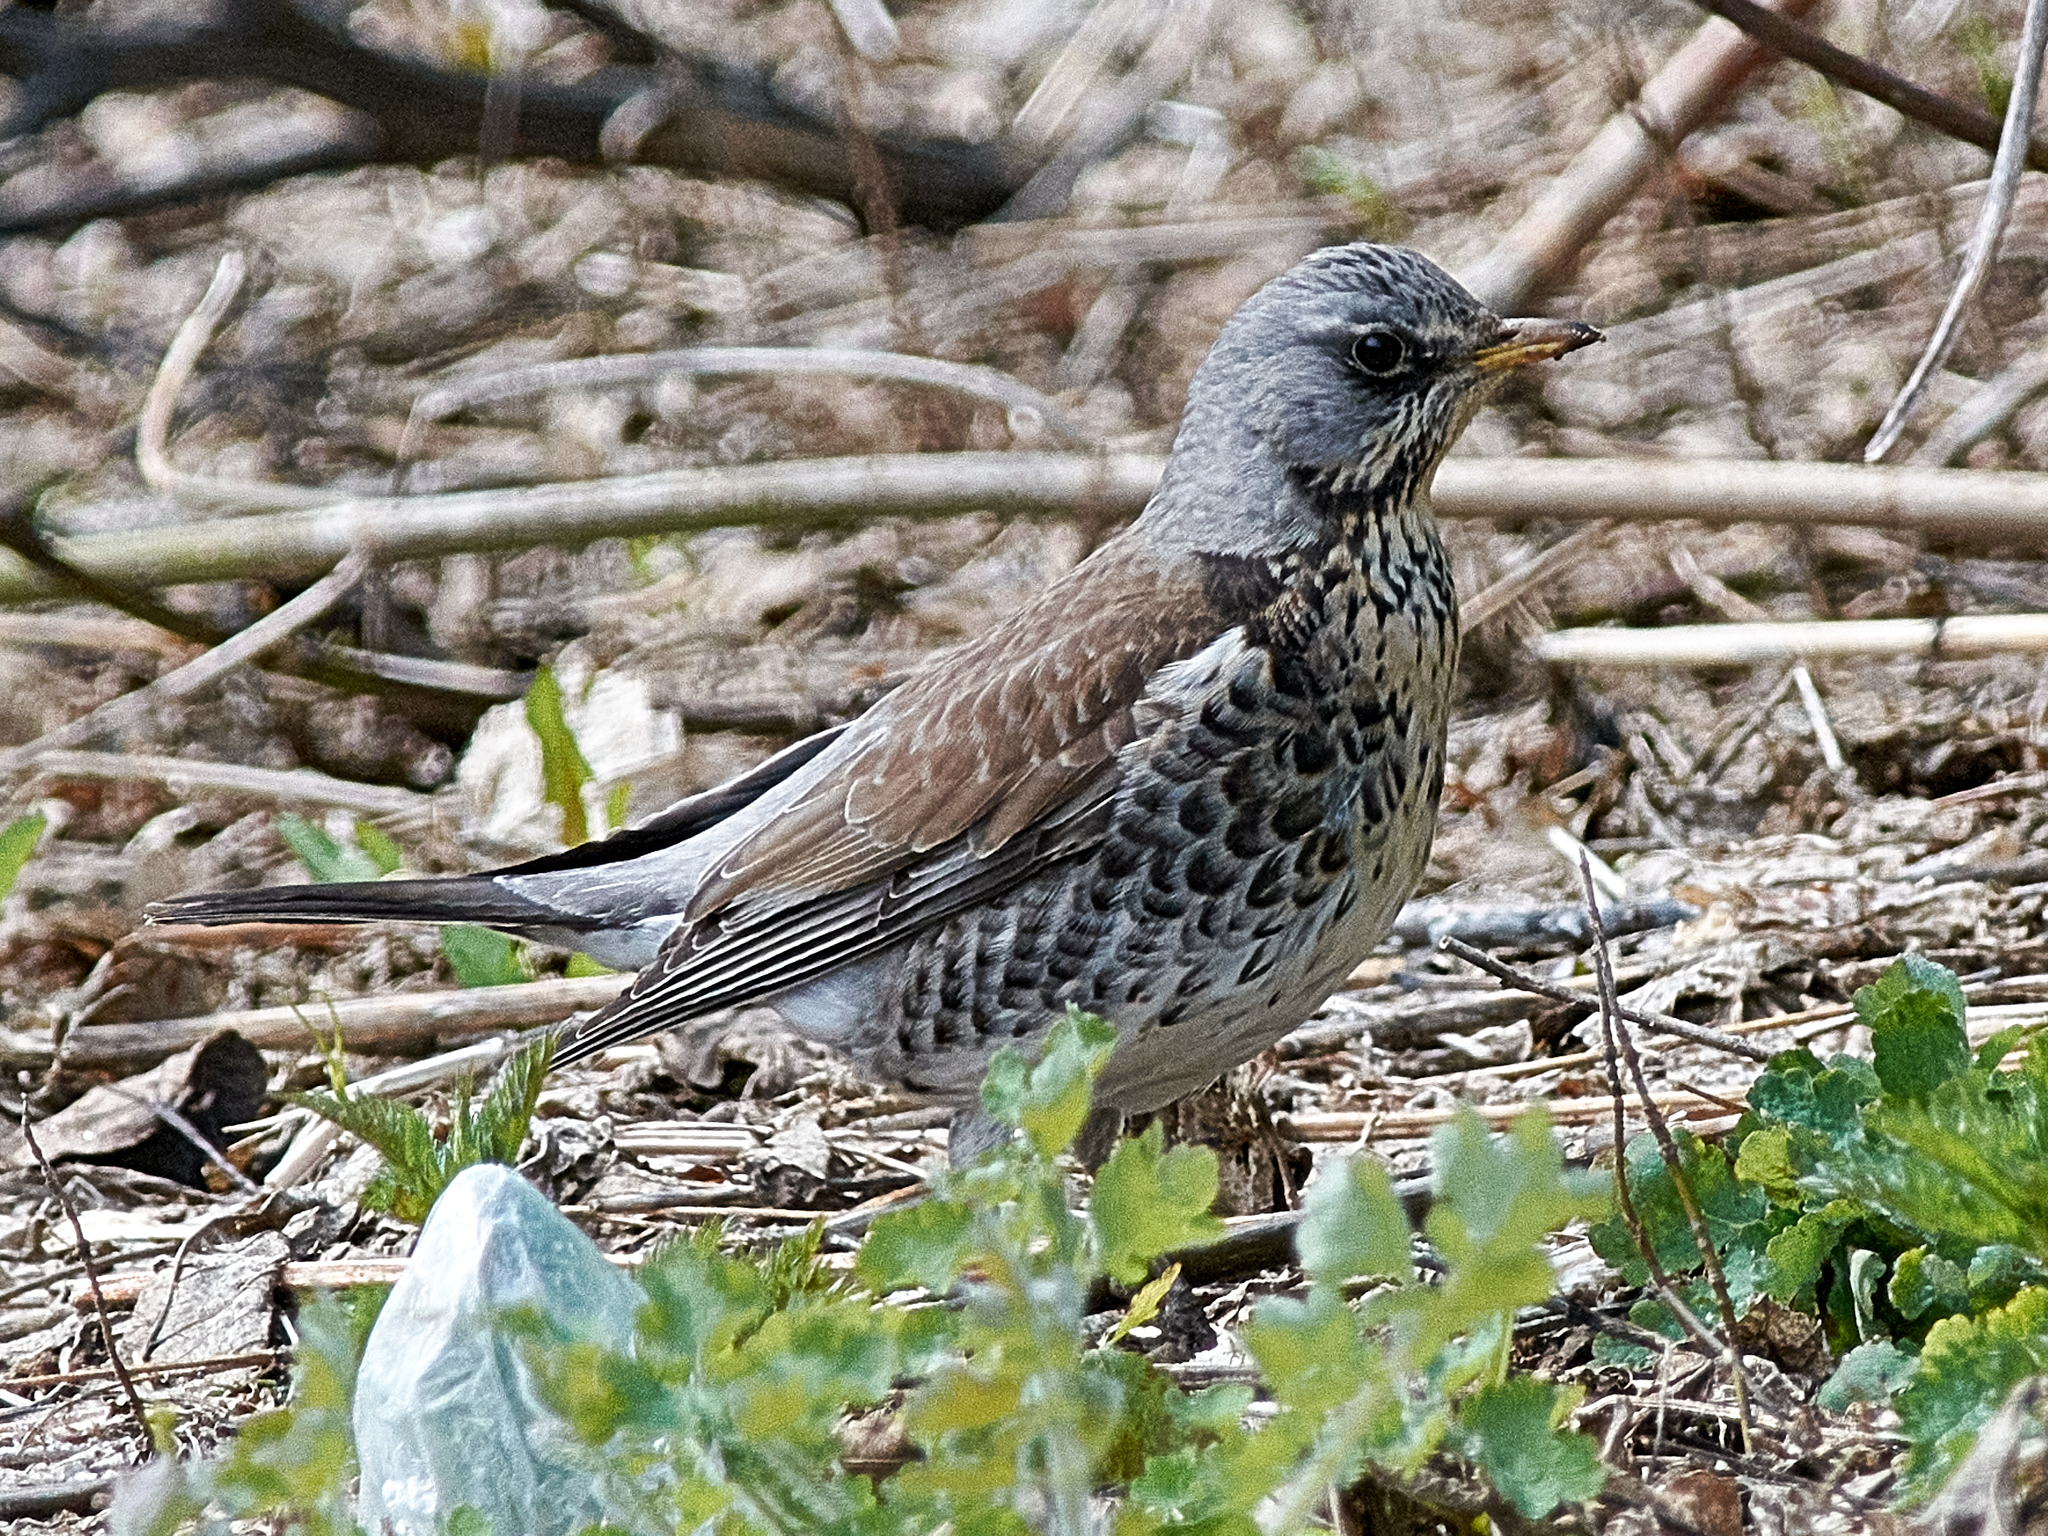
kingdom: Animalia
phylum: Chordata
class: Aves
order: Passeriformes
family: Turdidae
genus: Turdus
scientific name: Turdus pilaris
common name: Fieldfare
